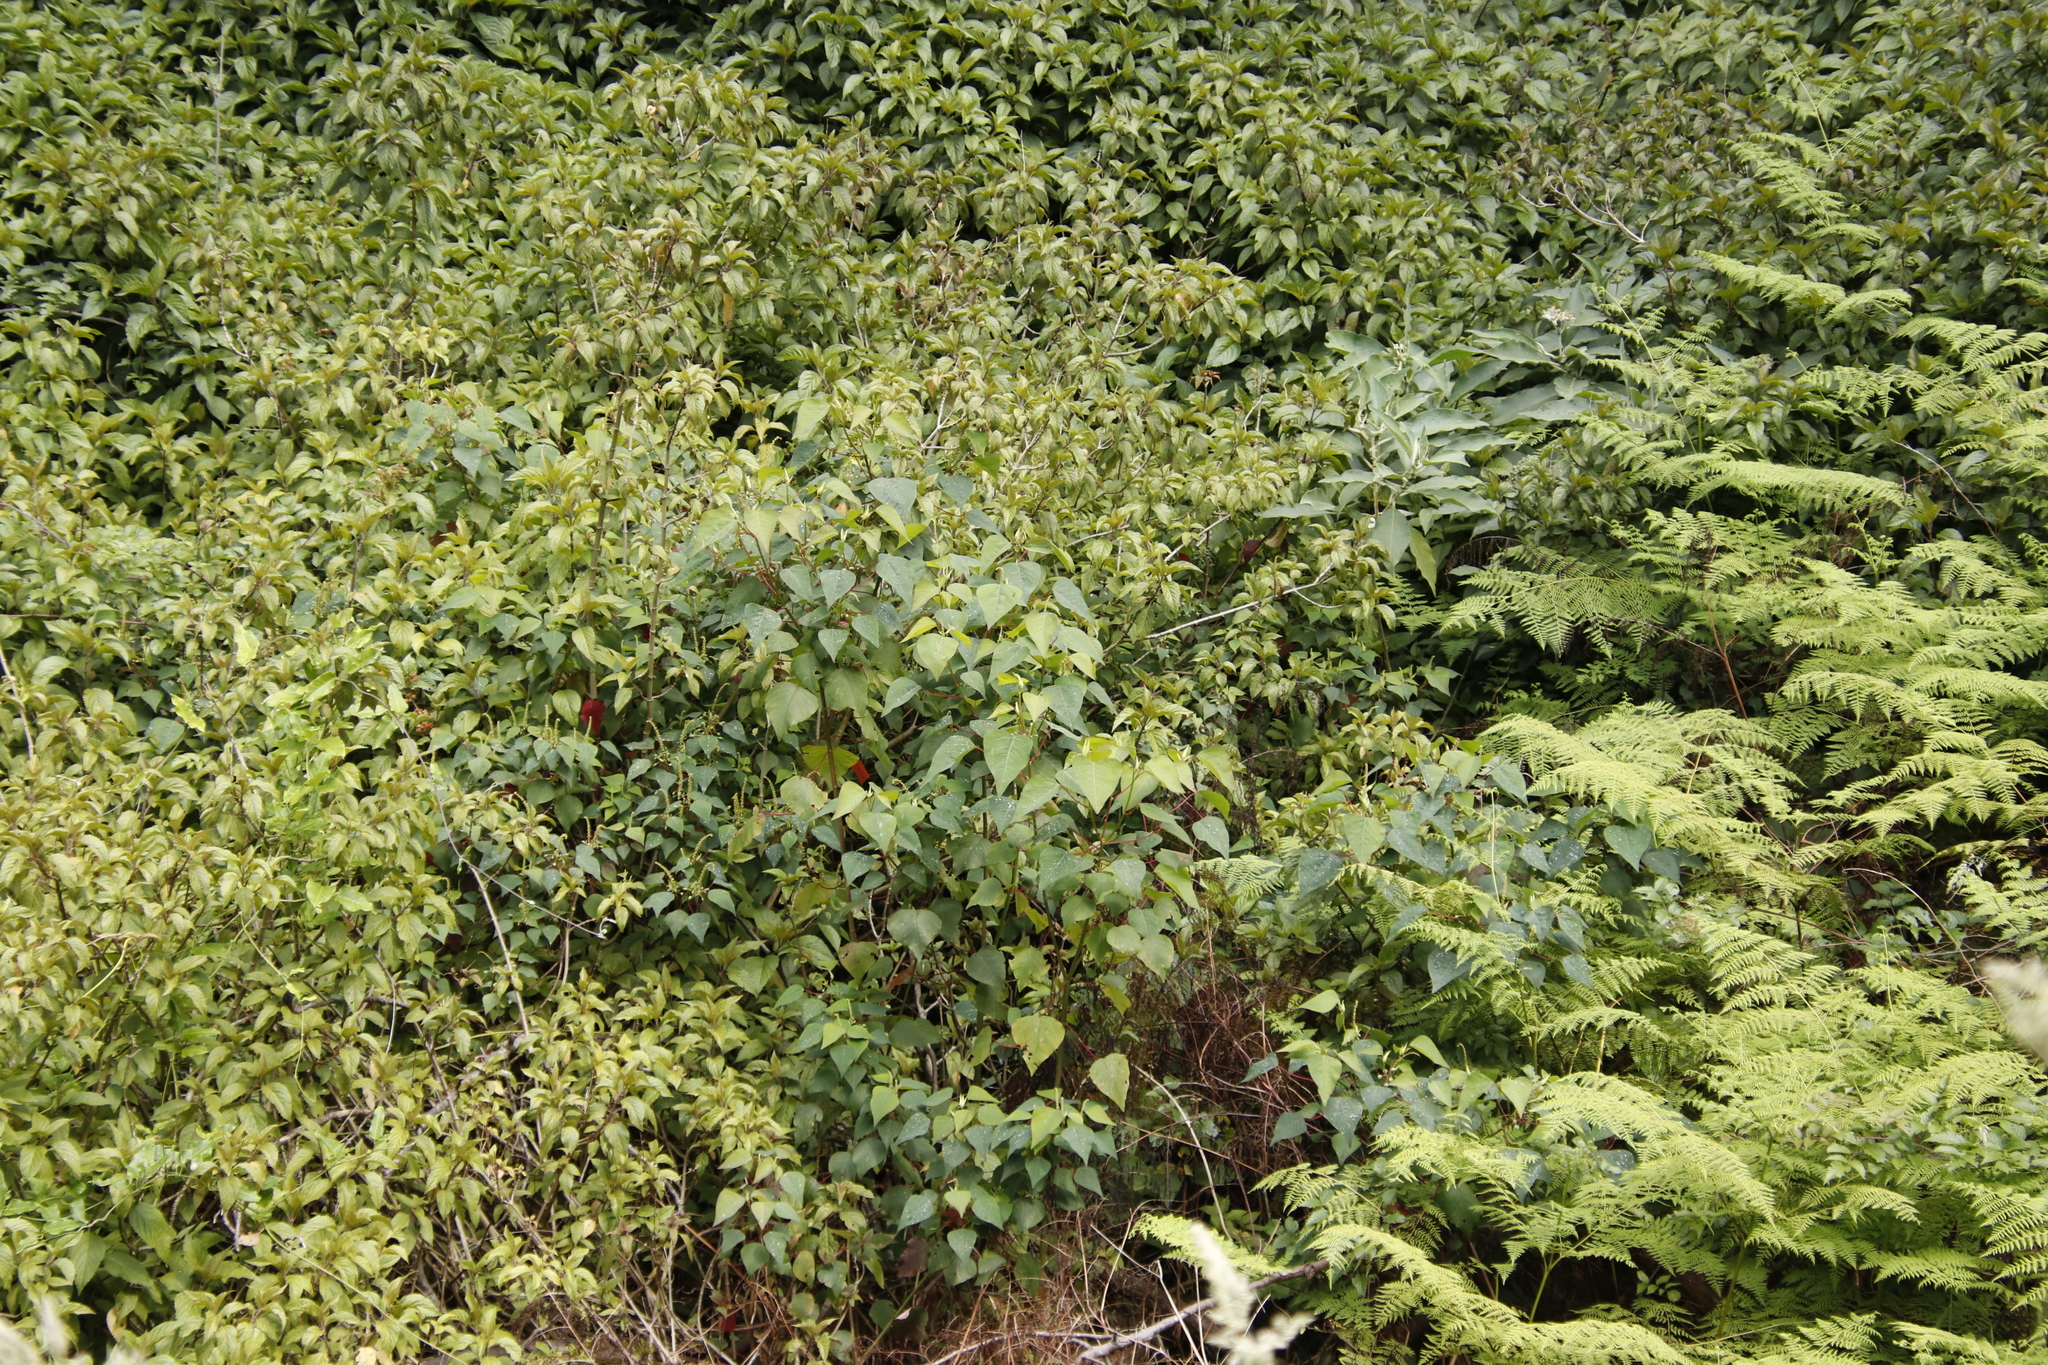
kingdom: Plantae
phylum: Tracheophyta
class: Magnoliopsida
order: Malpighiales
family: Euphorbiaceae
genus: Homalanthus
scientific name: Homalanthus populifolius
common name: Queensland poplar
